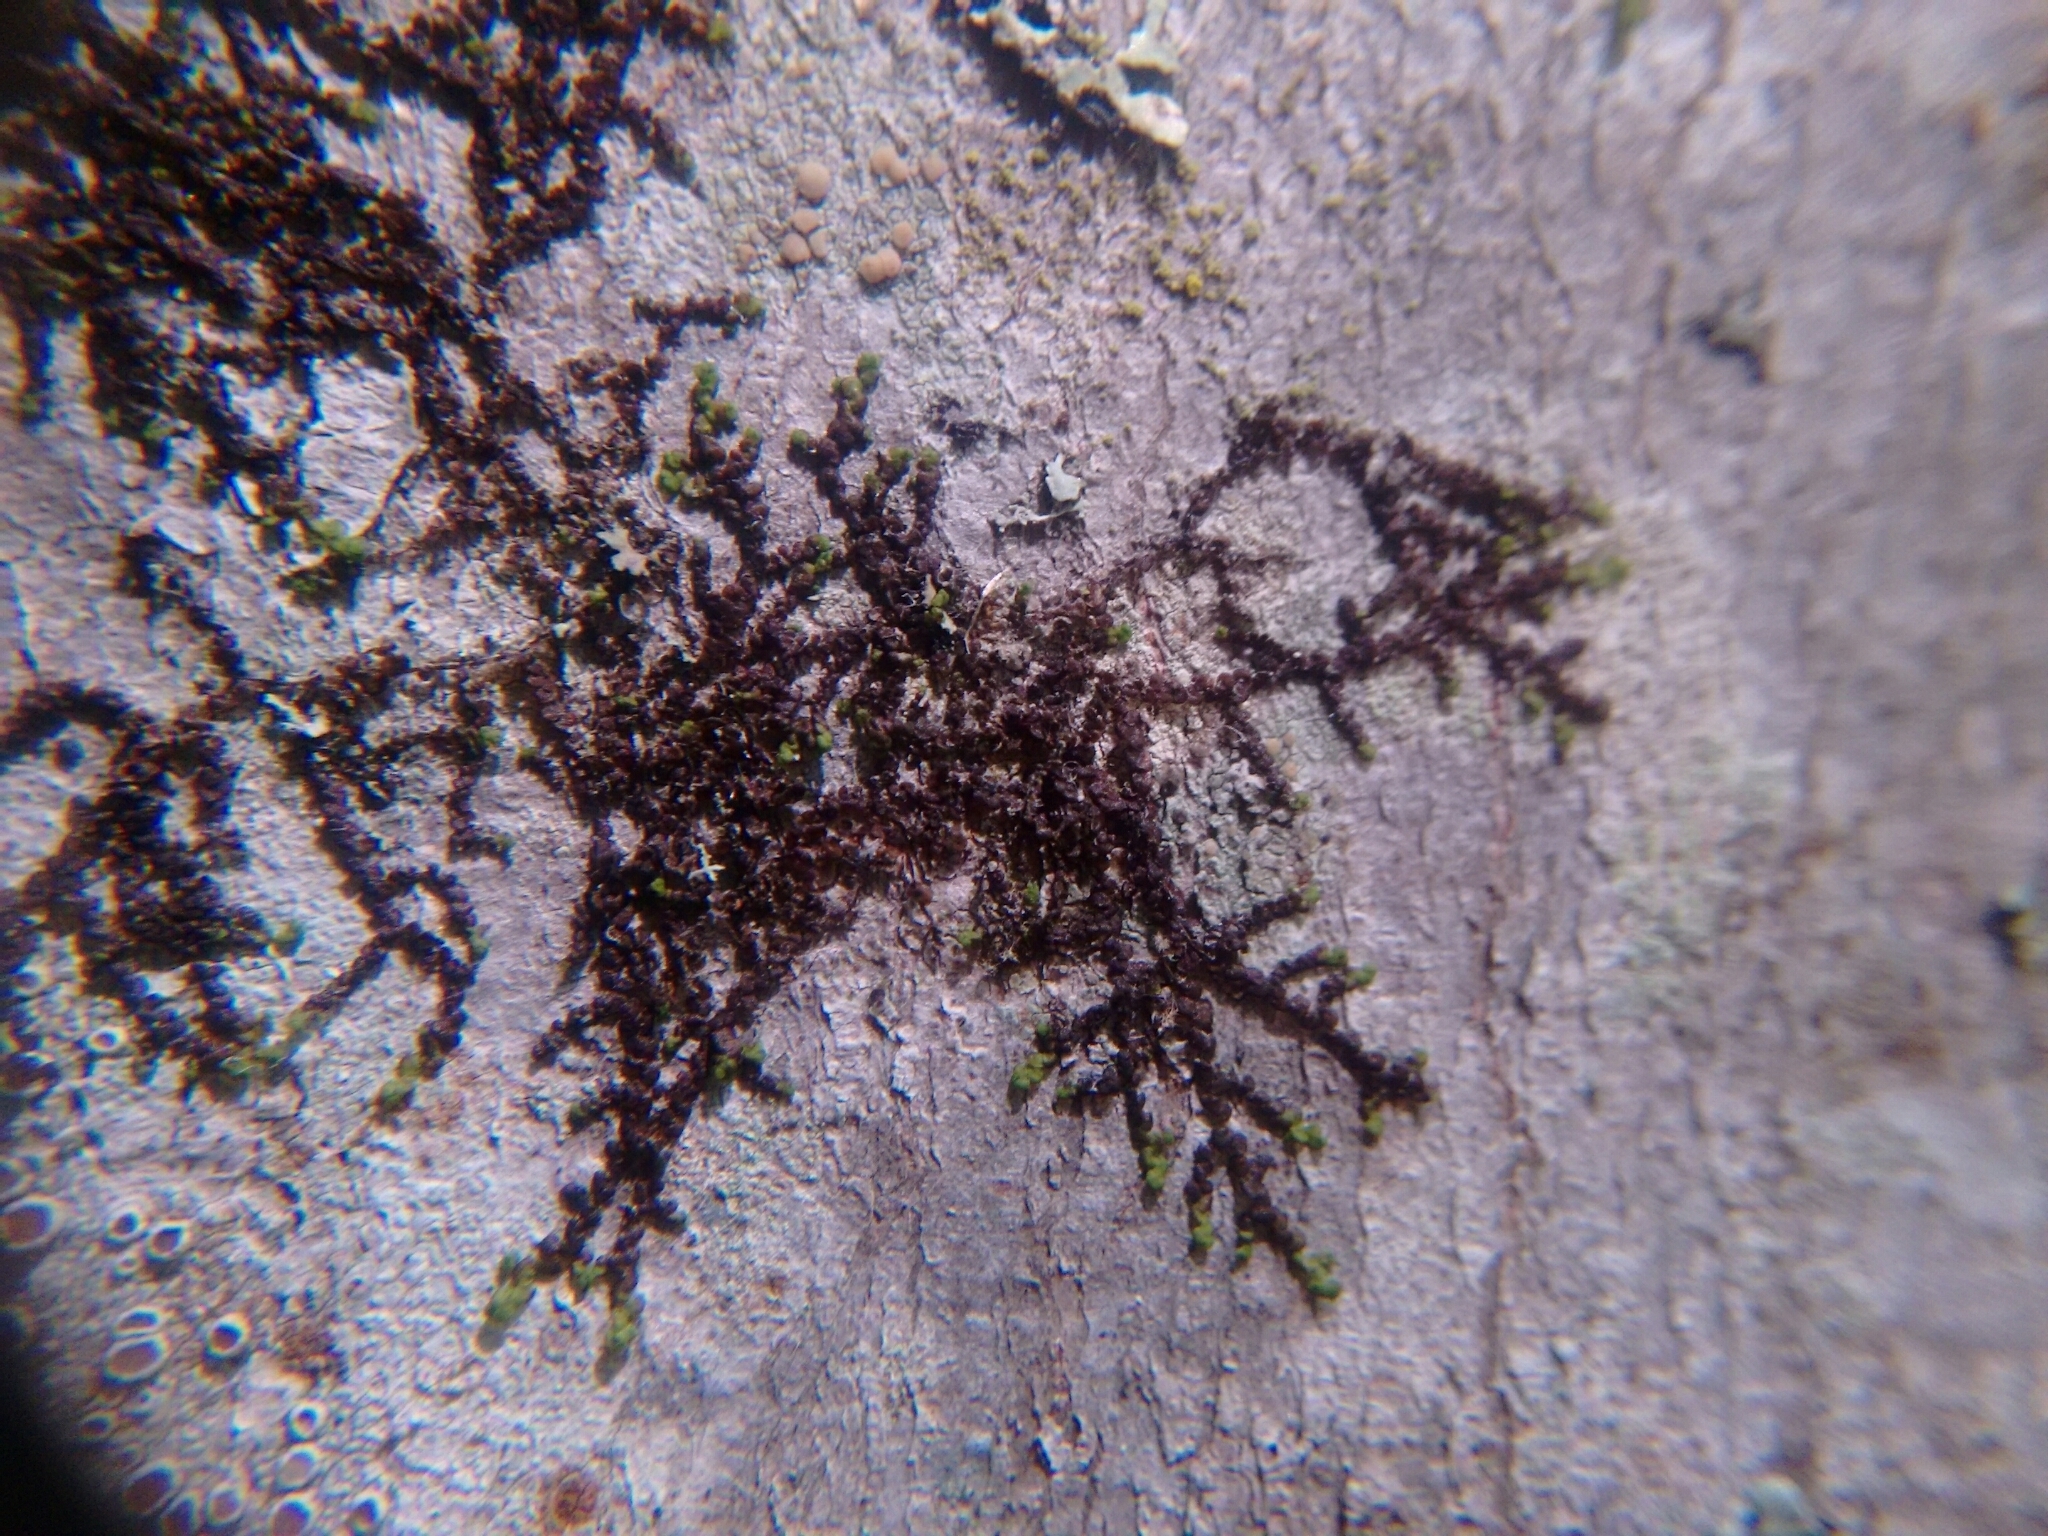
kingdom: Plantae
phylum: Marchantiophyta
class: Jungermanniopsida
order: Porellales
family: Frullaniaceae
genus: Frullania
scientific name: Frullania eboracensis
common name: New york scalewort
